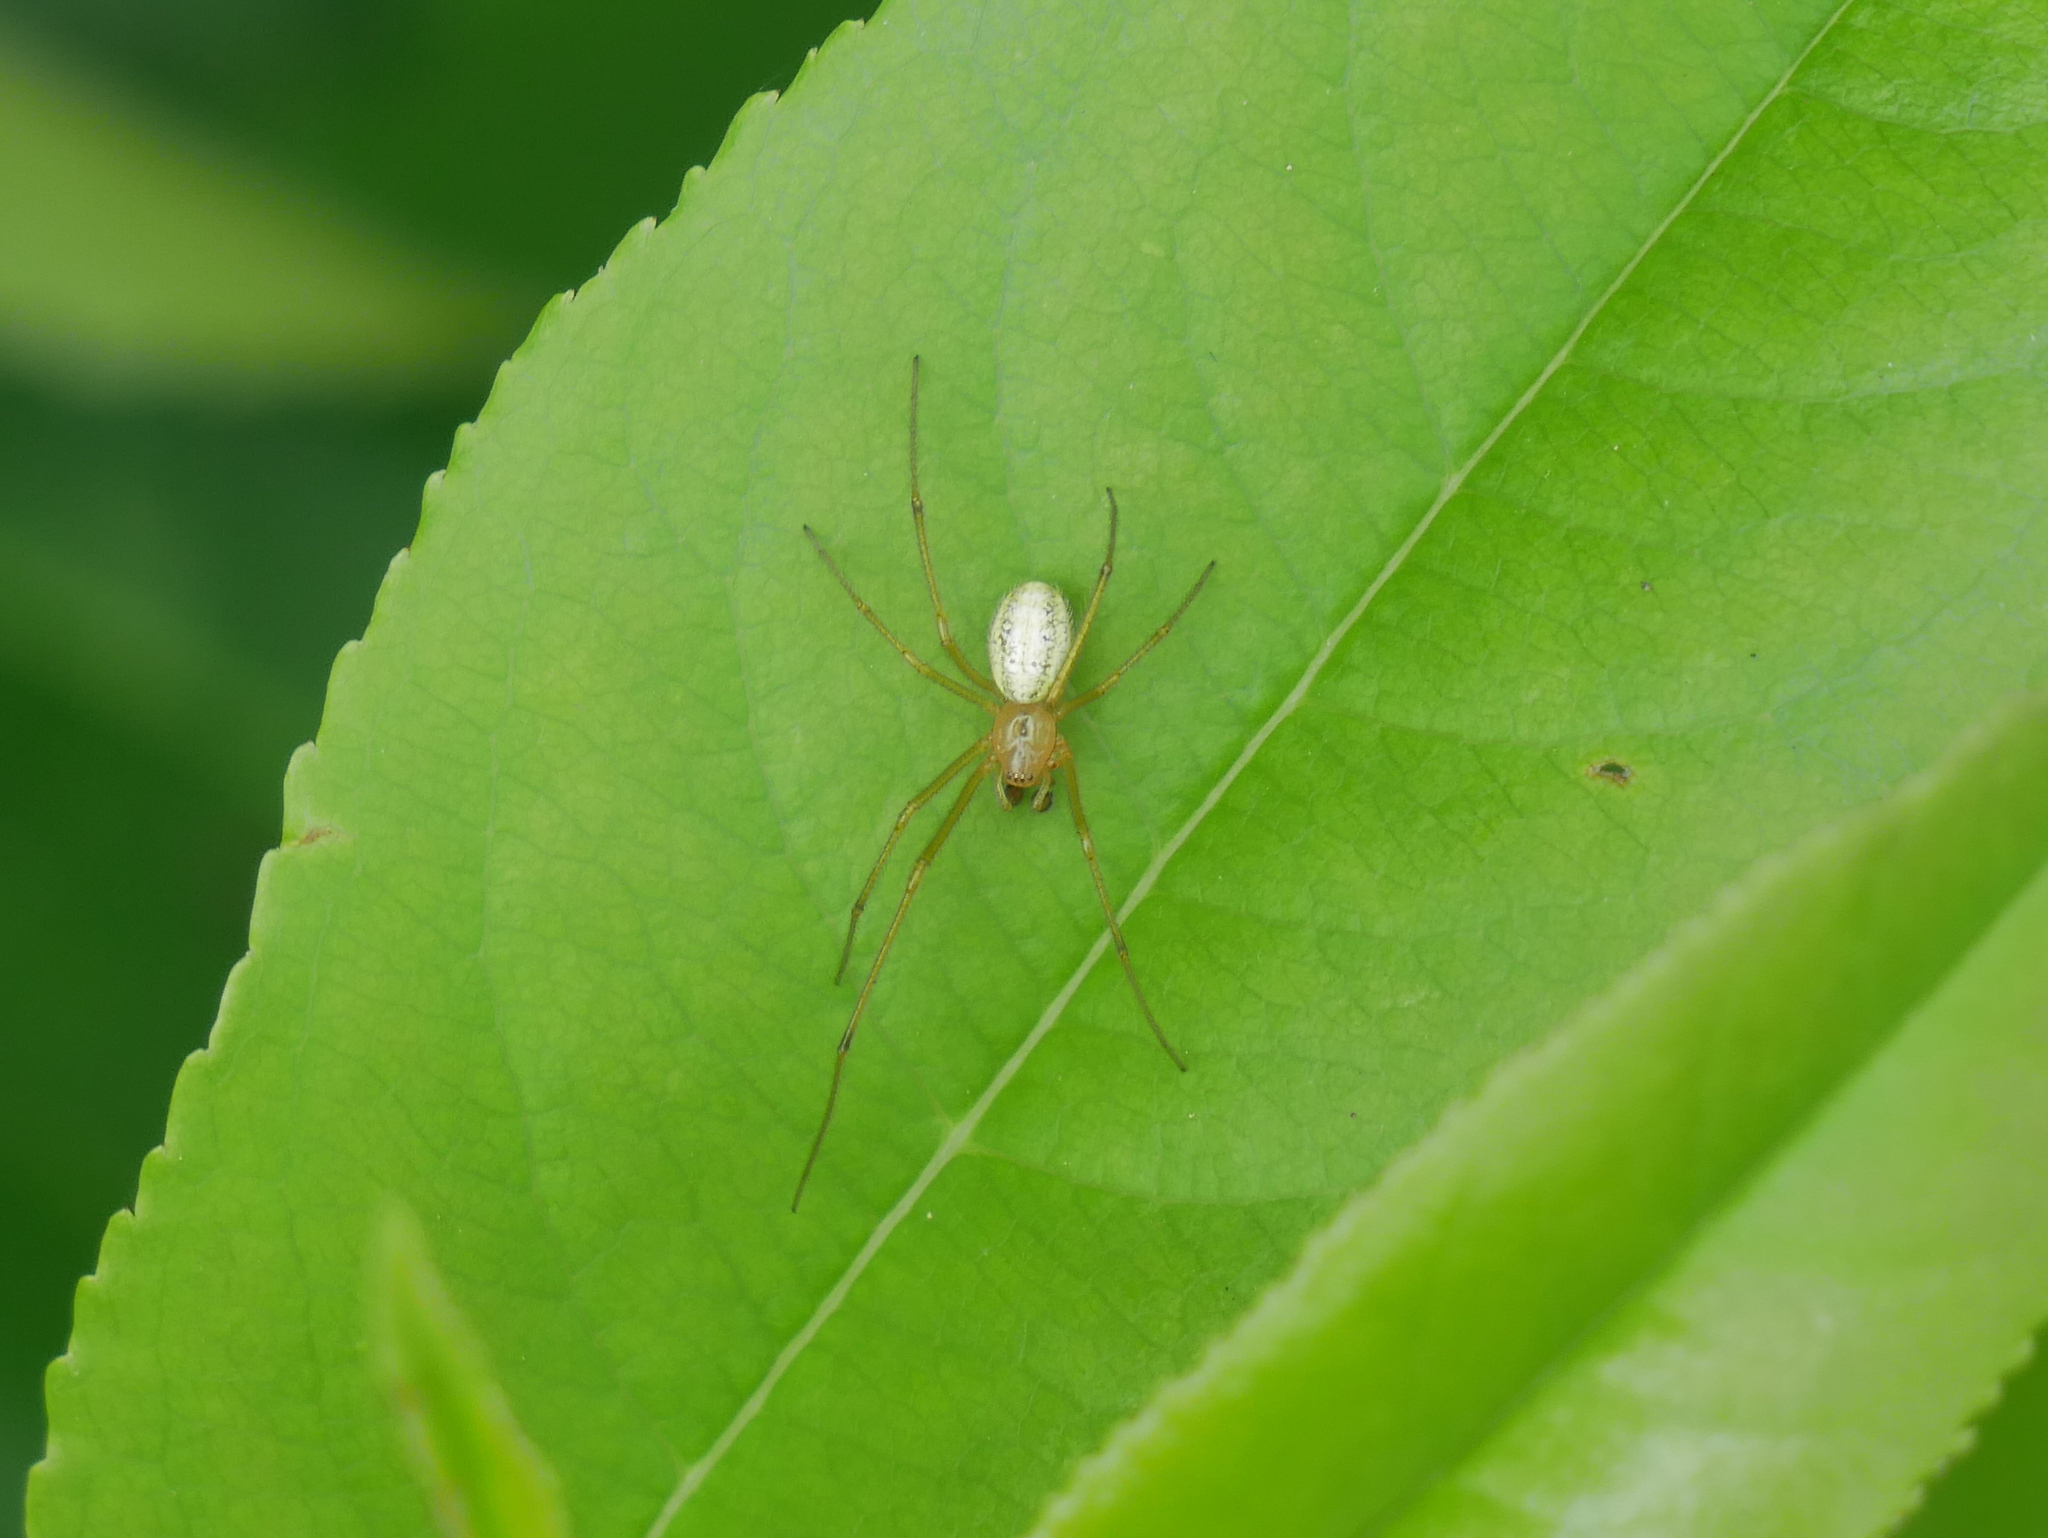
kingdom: Animalia
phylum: Arthropoda
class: Arachnida
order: Araneae
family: Theridiidae
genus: Enoplognatha
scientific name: Enoplognatha
